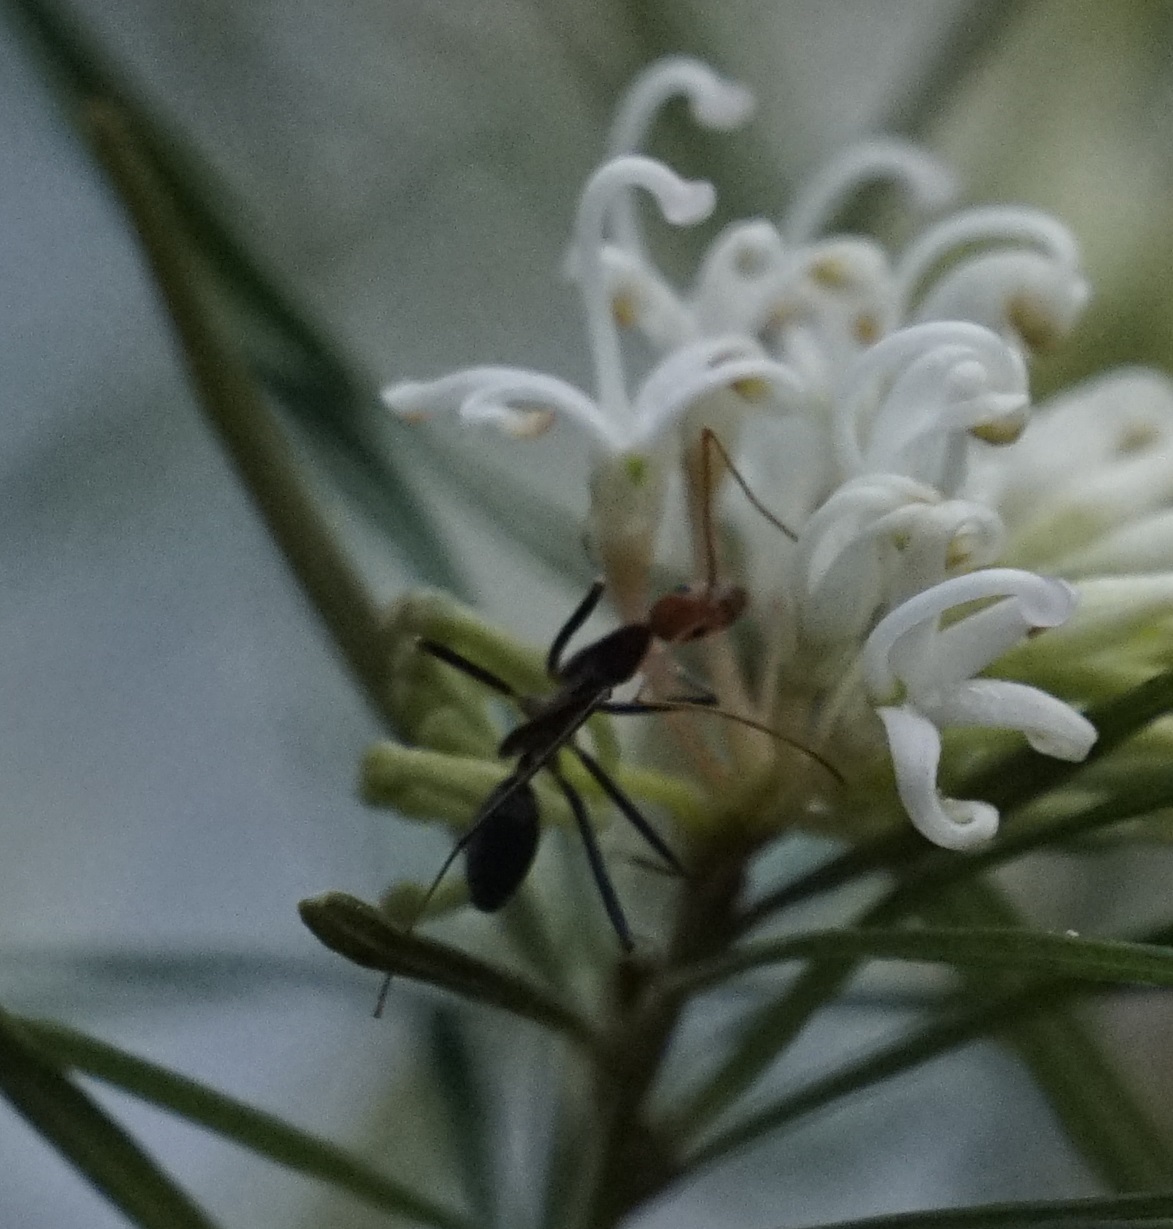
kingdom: Animalia
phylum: Arthropoda
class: Insecta
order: Hymenoptera
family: Formicidae
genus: Leptomyrmex
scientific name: Leptomyrmex erythrocephalus
